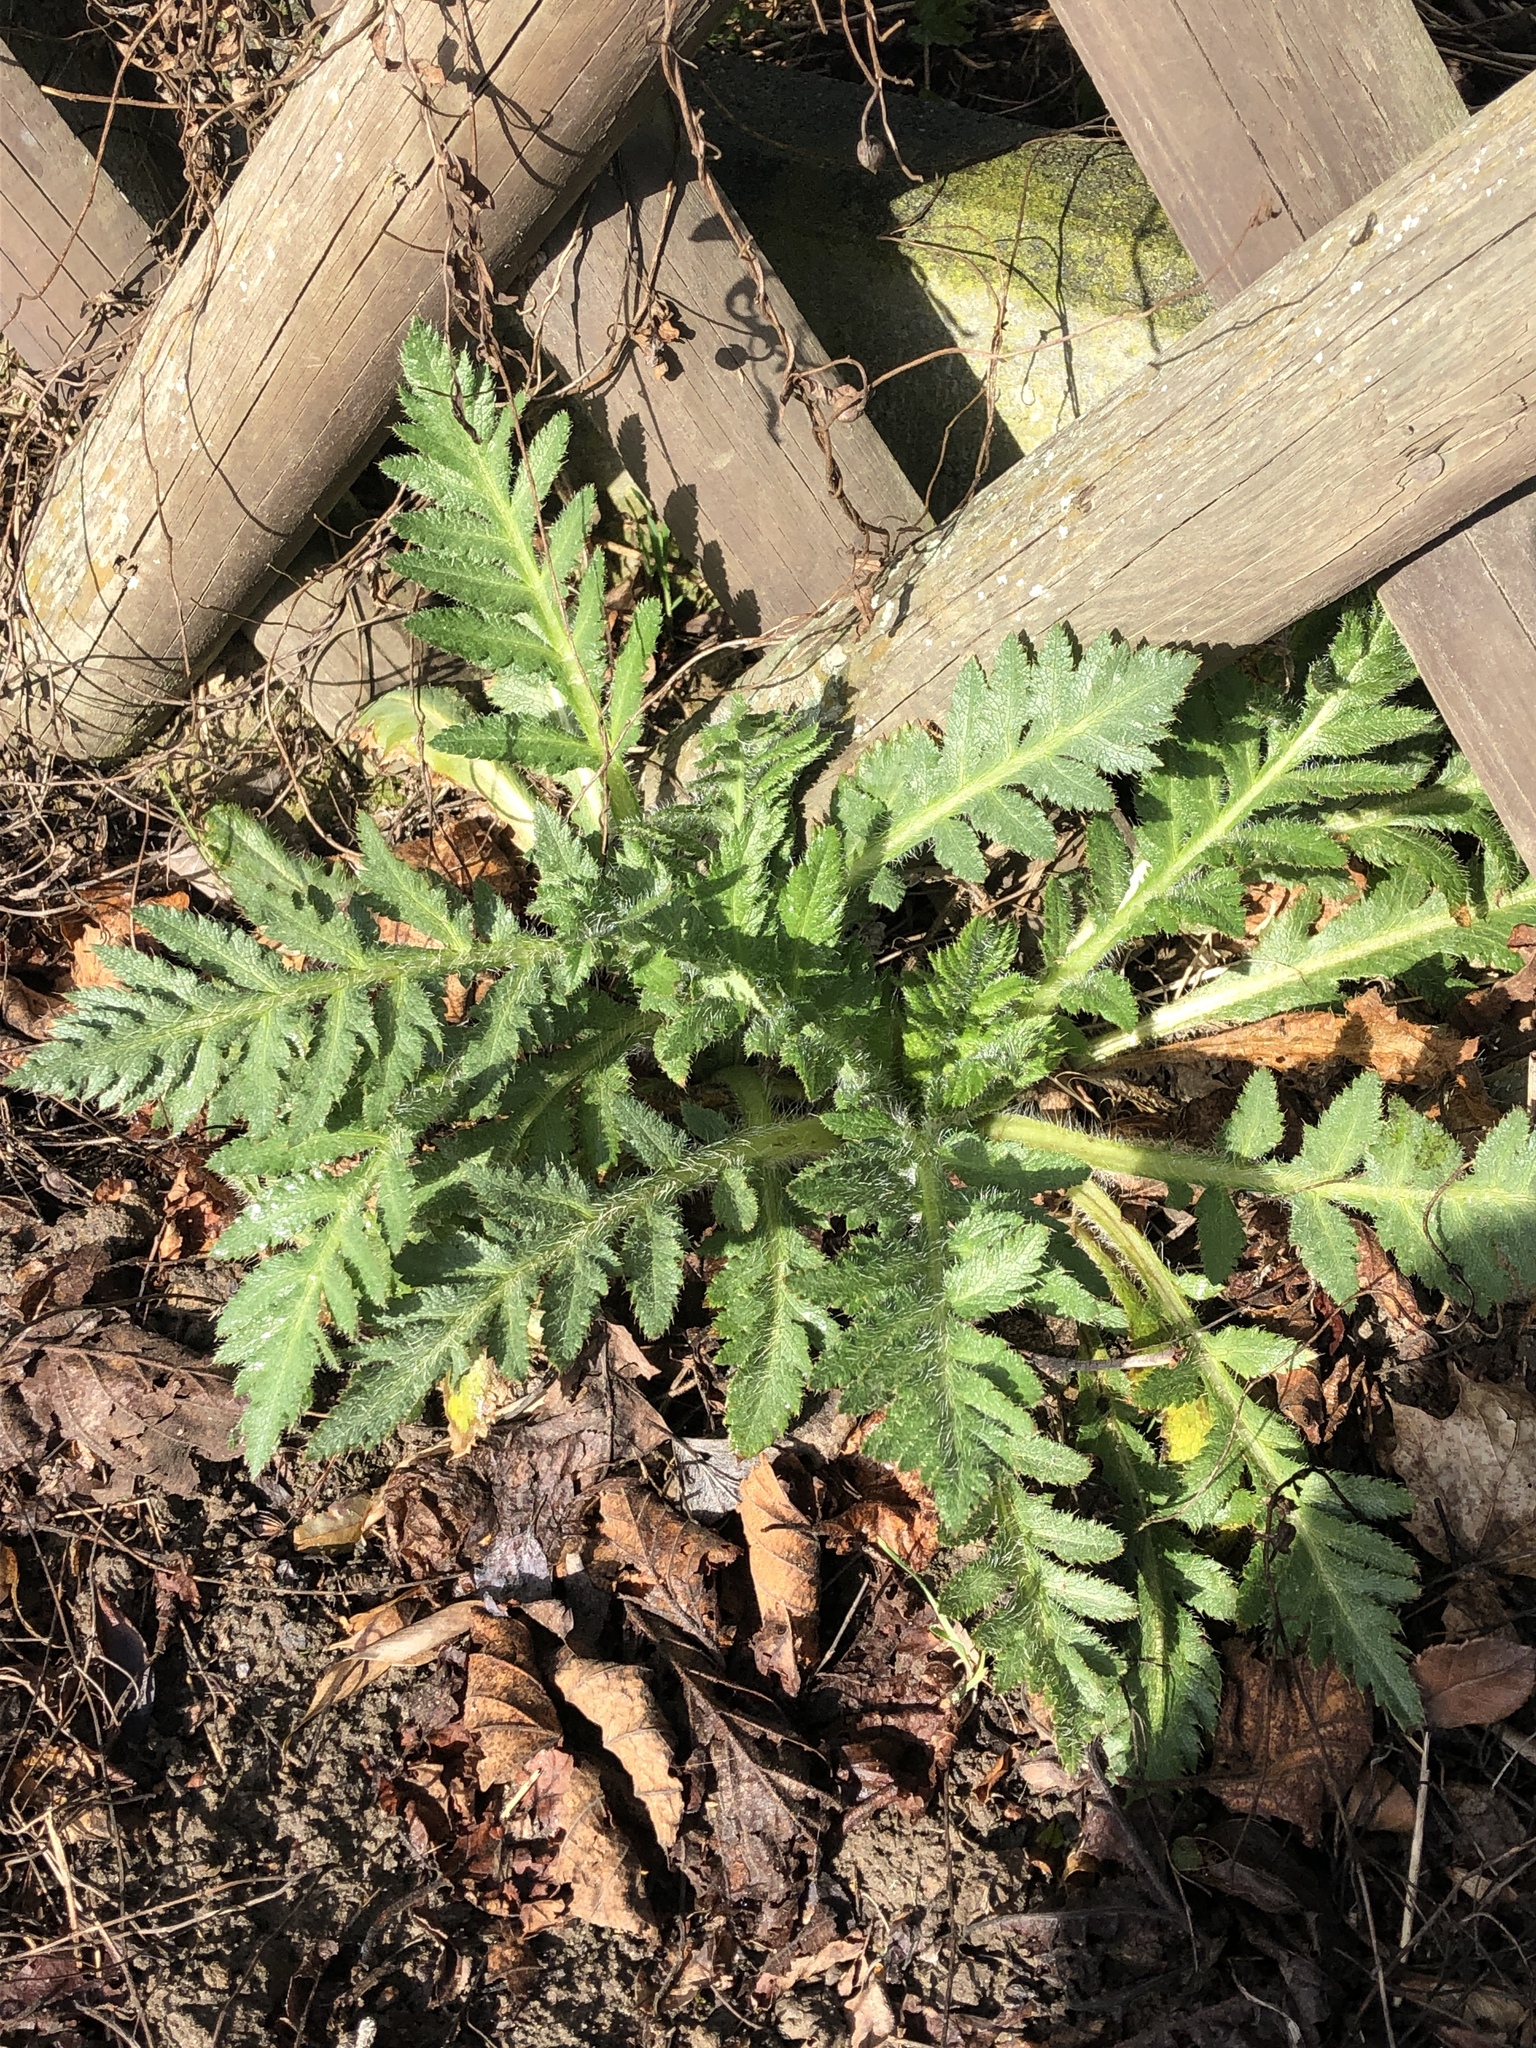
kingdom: Plantae
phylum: Tracheophyta
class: Magnoliopsida
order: Asterales
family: Asteraceae
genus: Tanacetum
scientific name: Tanacetum vulgare
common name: Common tansy
